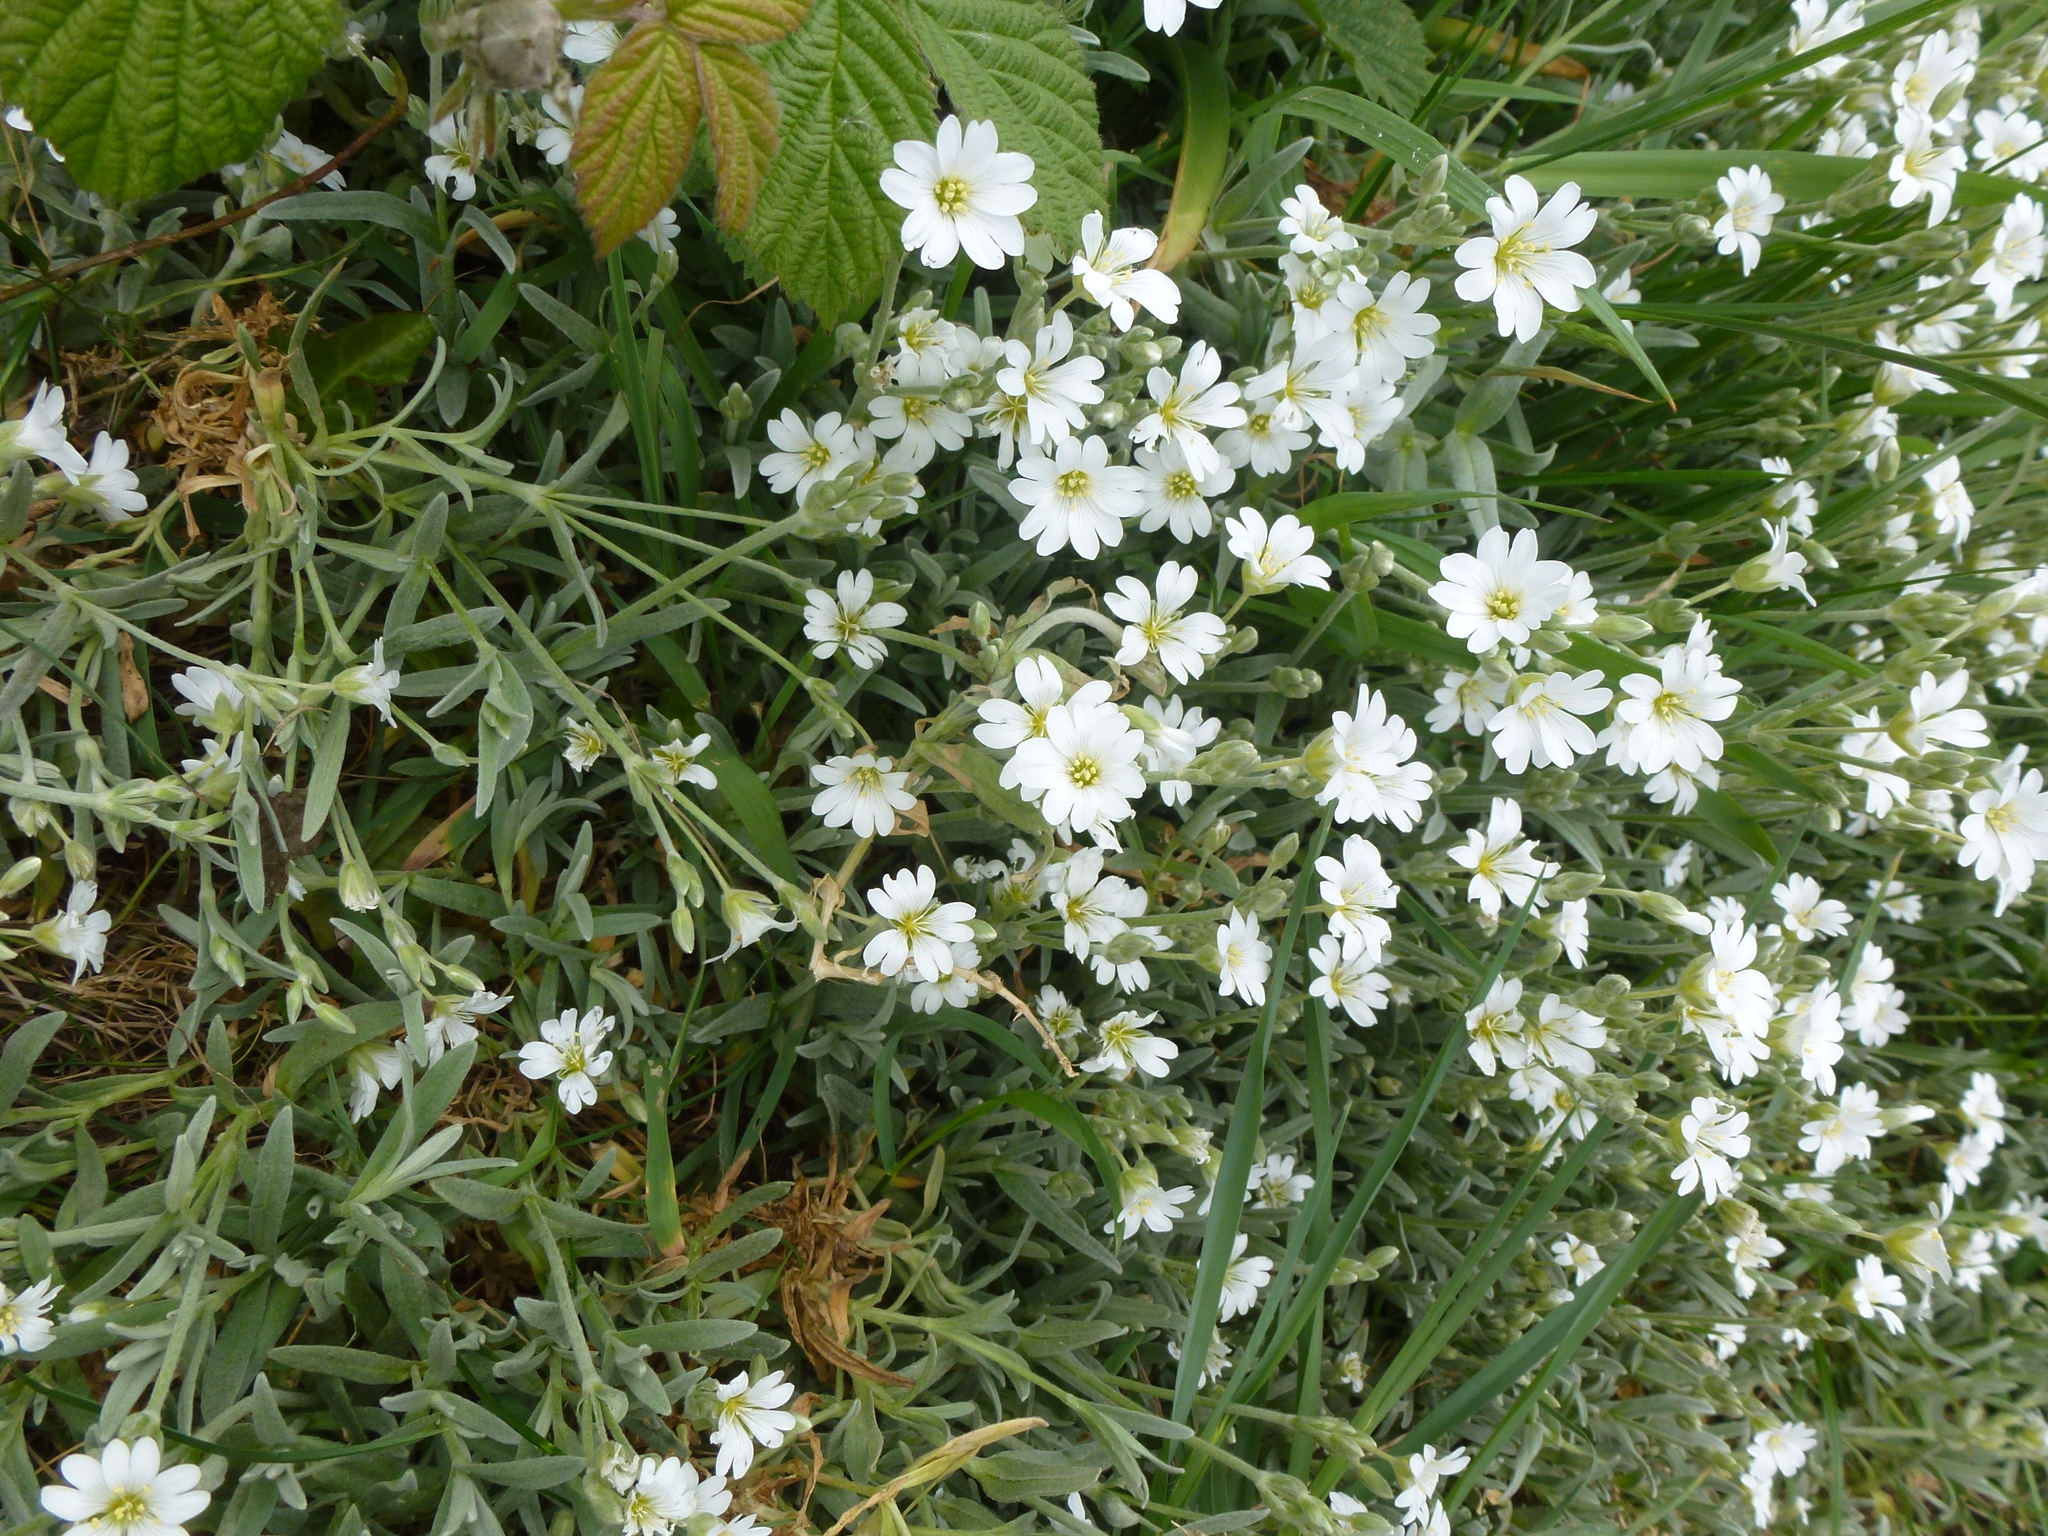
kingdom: Plantae
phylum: Tracheophyta
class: Magnoliopsida
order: Caryophyllales
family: Caryophyllaceae
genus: Cerastium
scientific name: Cerastium tomentosum
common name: Snow-in-summer
